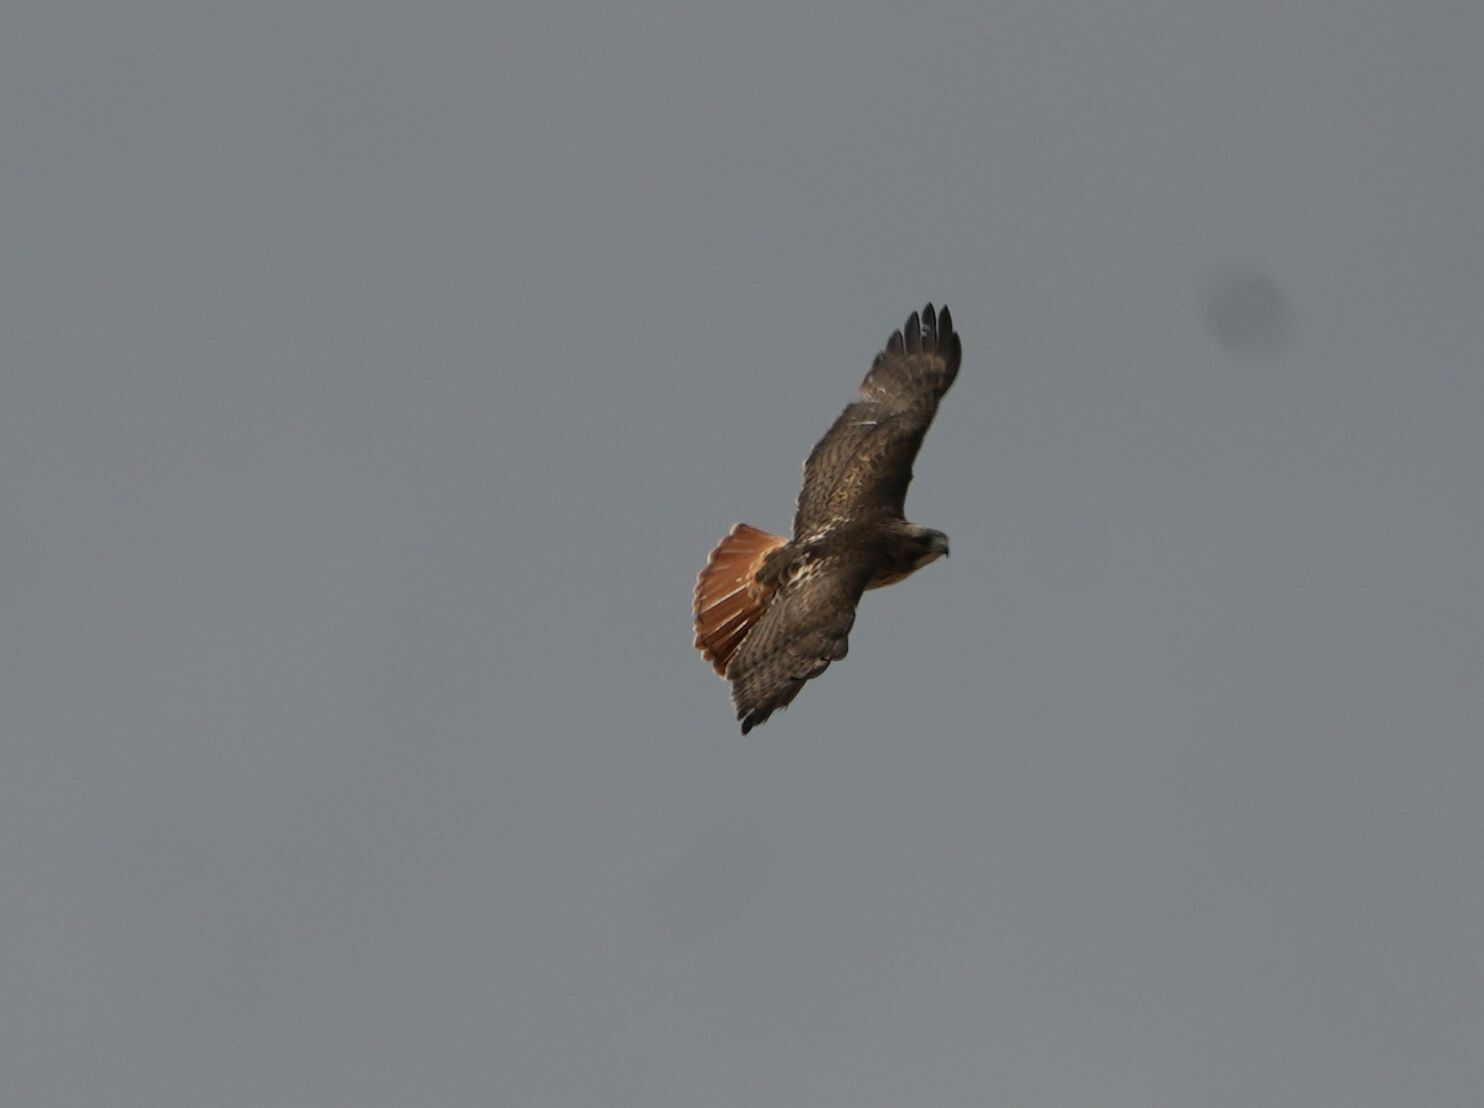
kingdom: Animalia
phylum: Chordata
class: Aves
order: Accipitriformes
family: Accipitridae
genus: Buteo
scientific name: Buteo jamaicensis
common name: Red-tailed hawk
